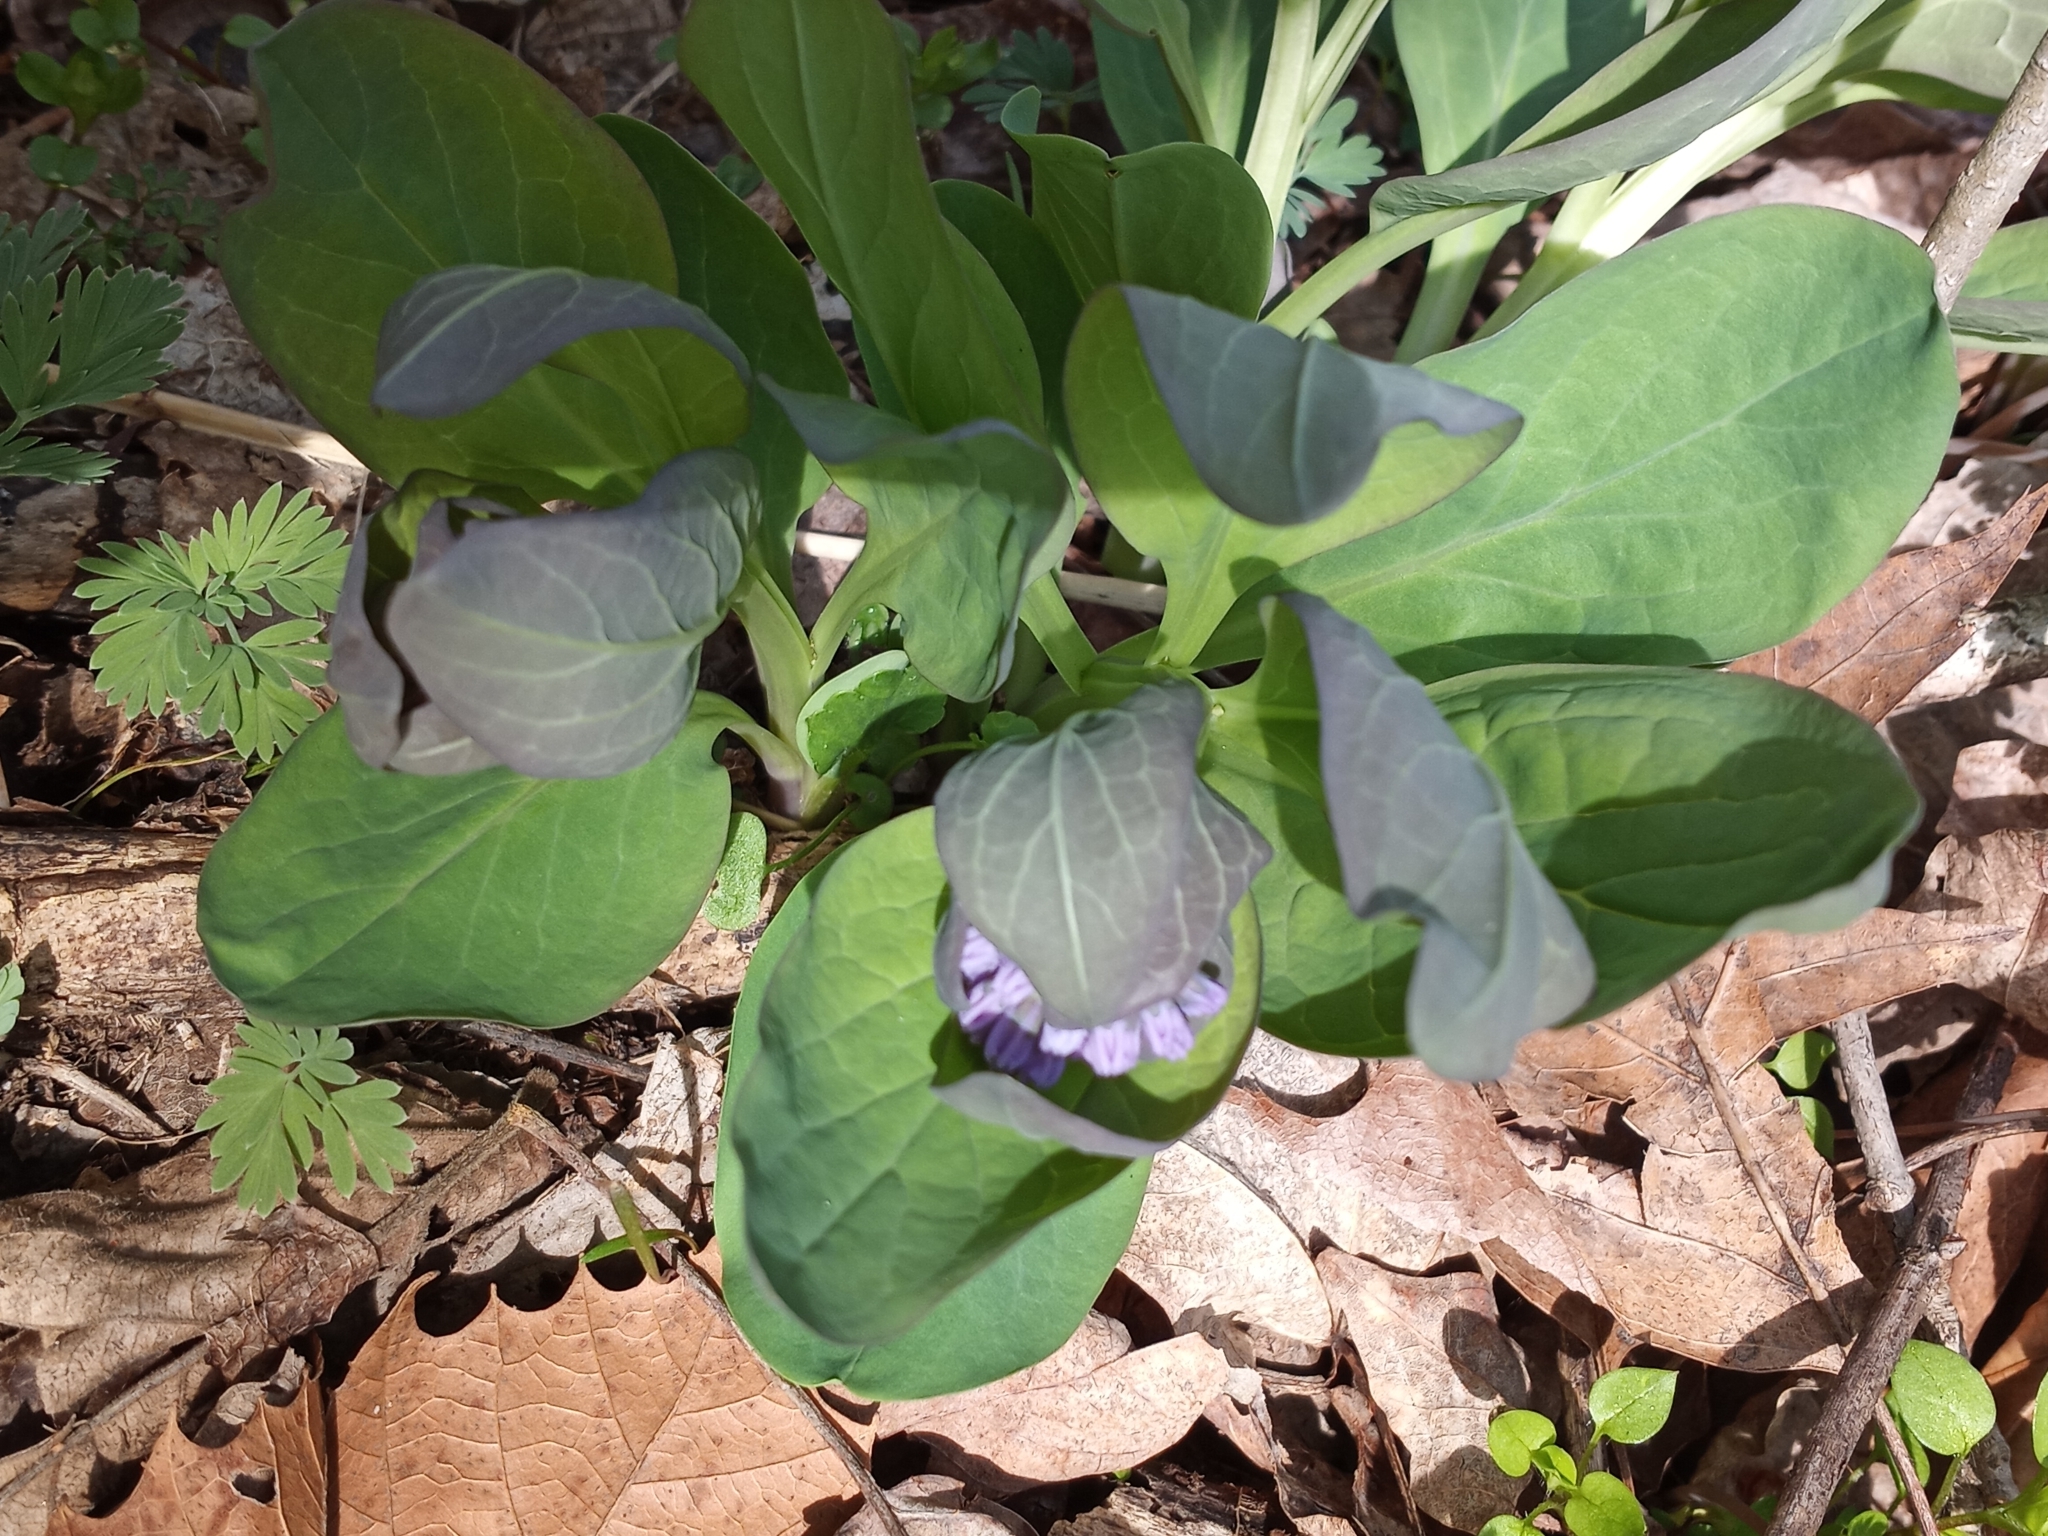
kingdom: Plantae
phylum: Tracheophyta
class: Magnoliopsida
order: Boraginales
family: Boraginaceae
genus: Mertensia
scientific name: Mertensia virginica
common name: Virginia bluebells
